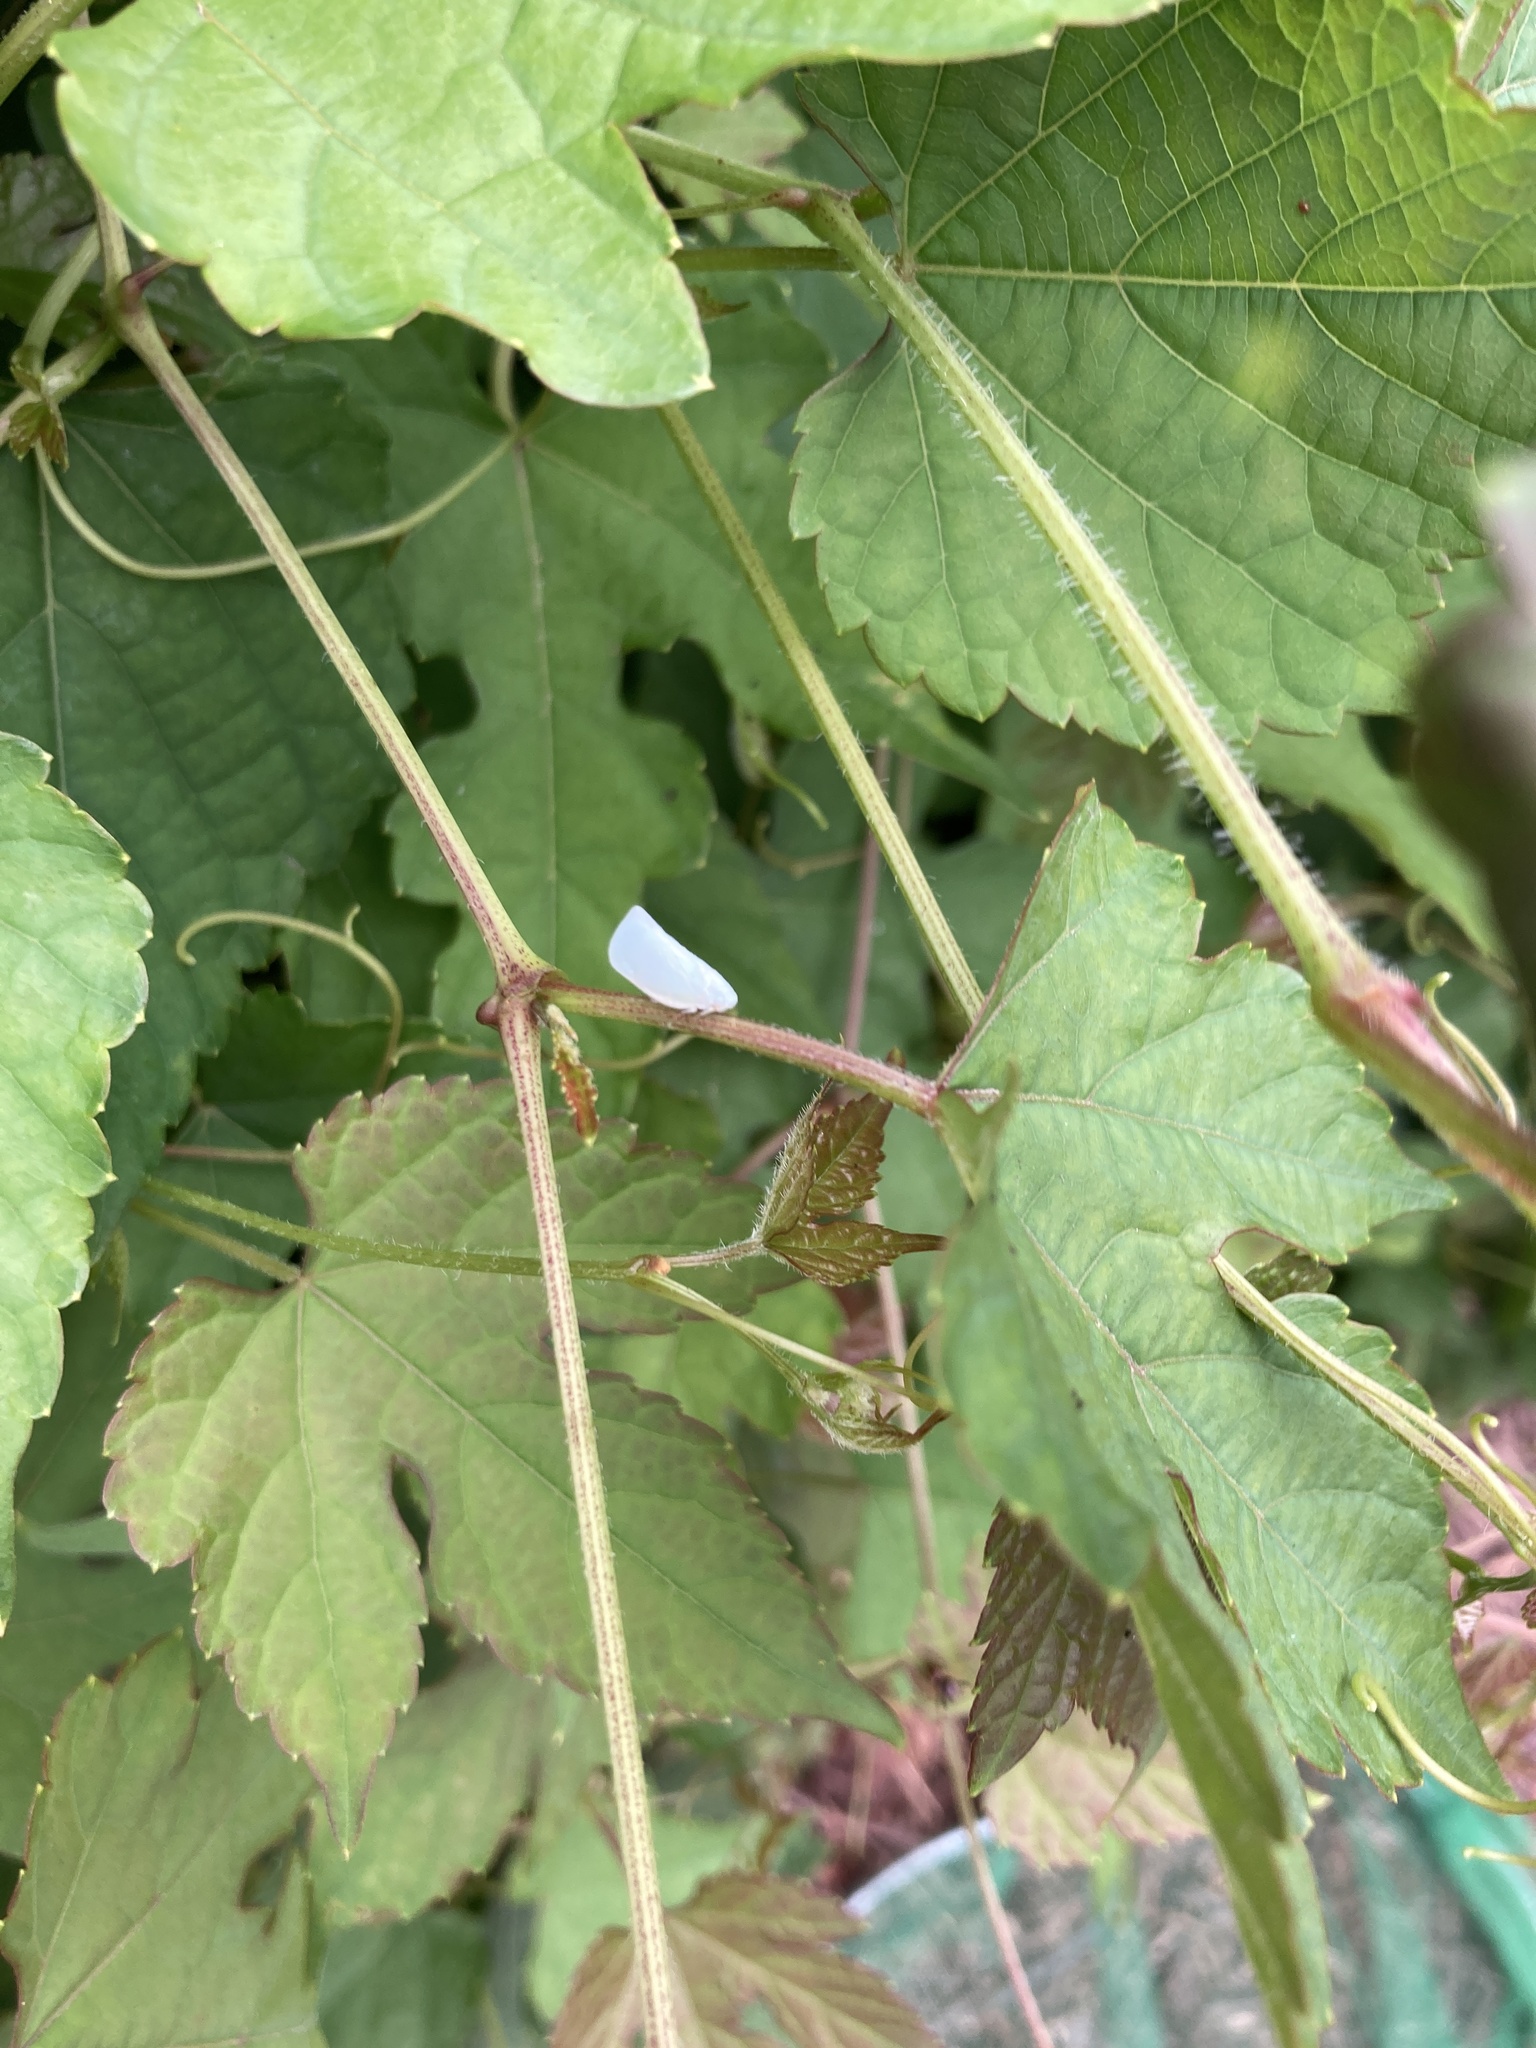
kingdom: Animalia
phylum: Arthropoda
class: Insecta
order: Hemiptera
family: Flatidae
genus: Flatormenis
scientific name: Flatormenis proxima
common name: Northern flatid planthopper
